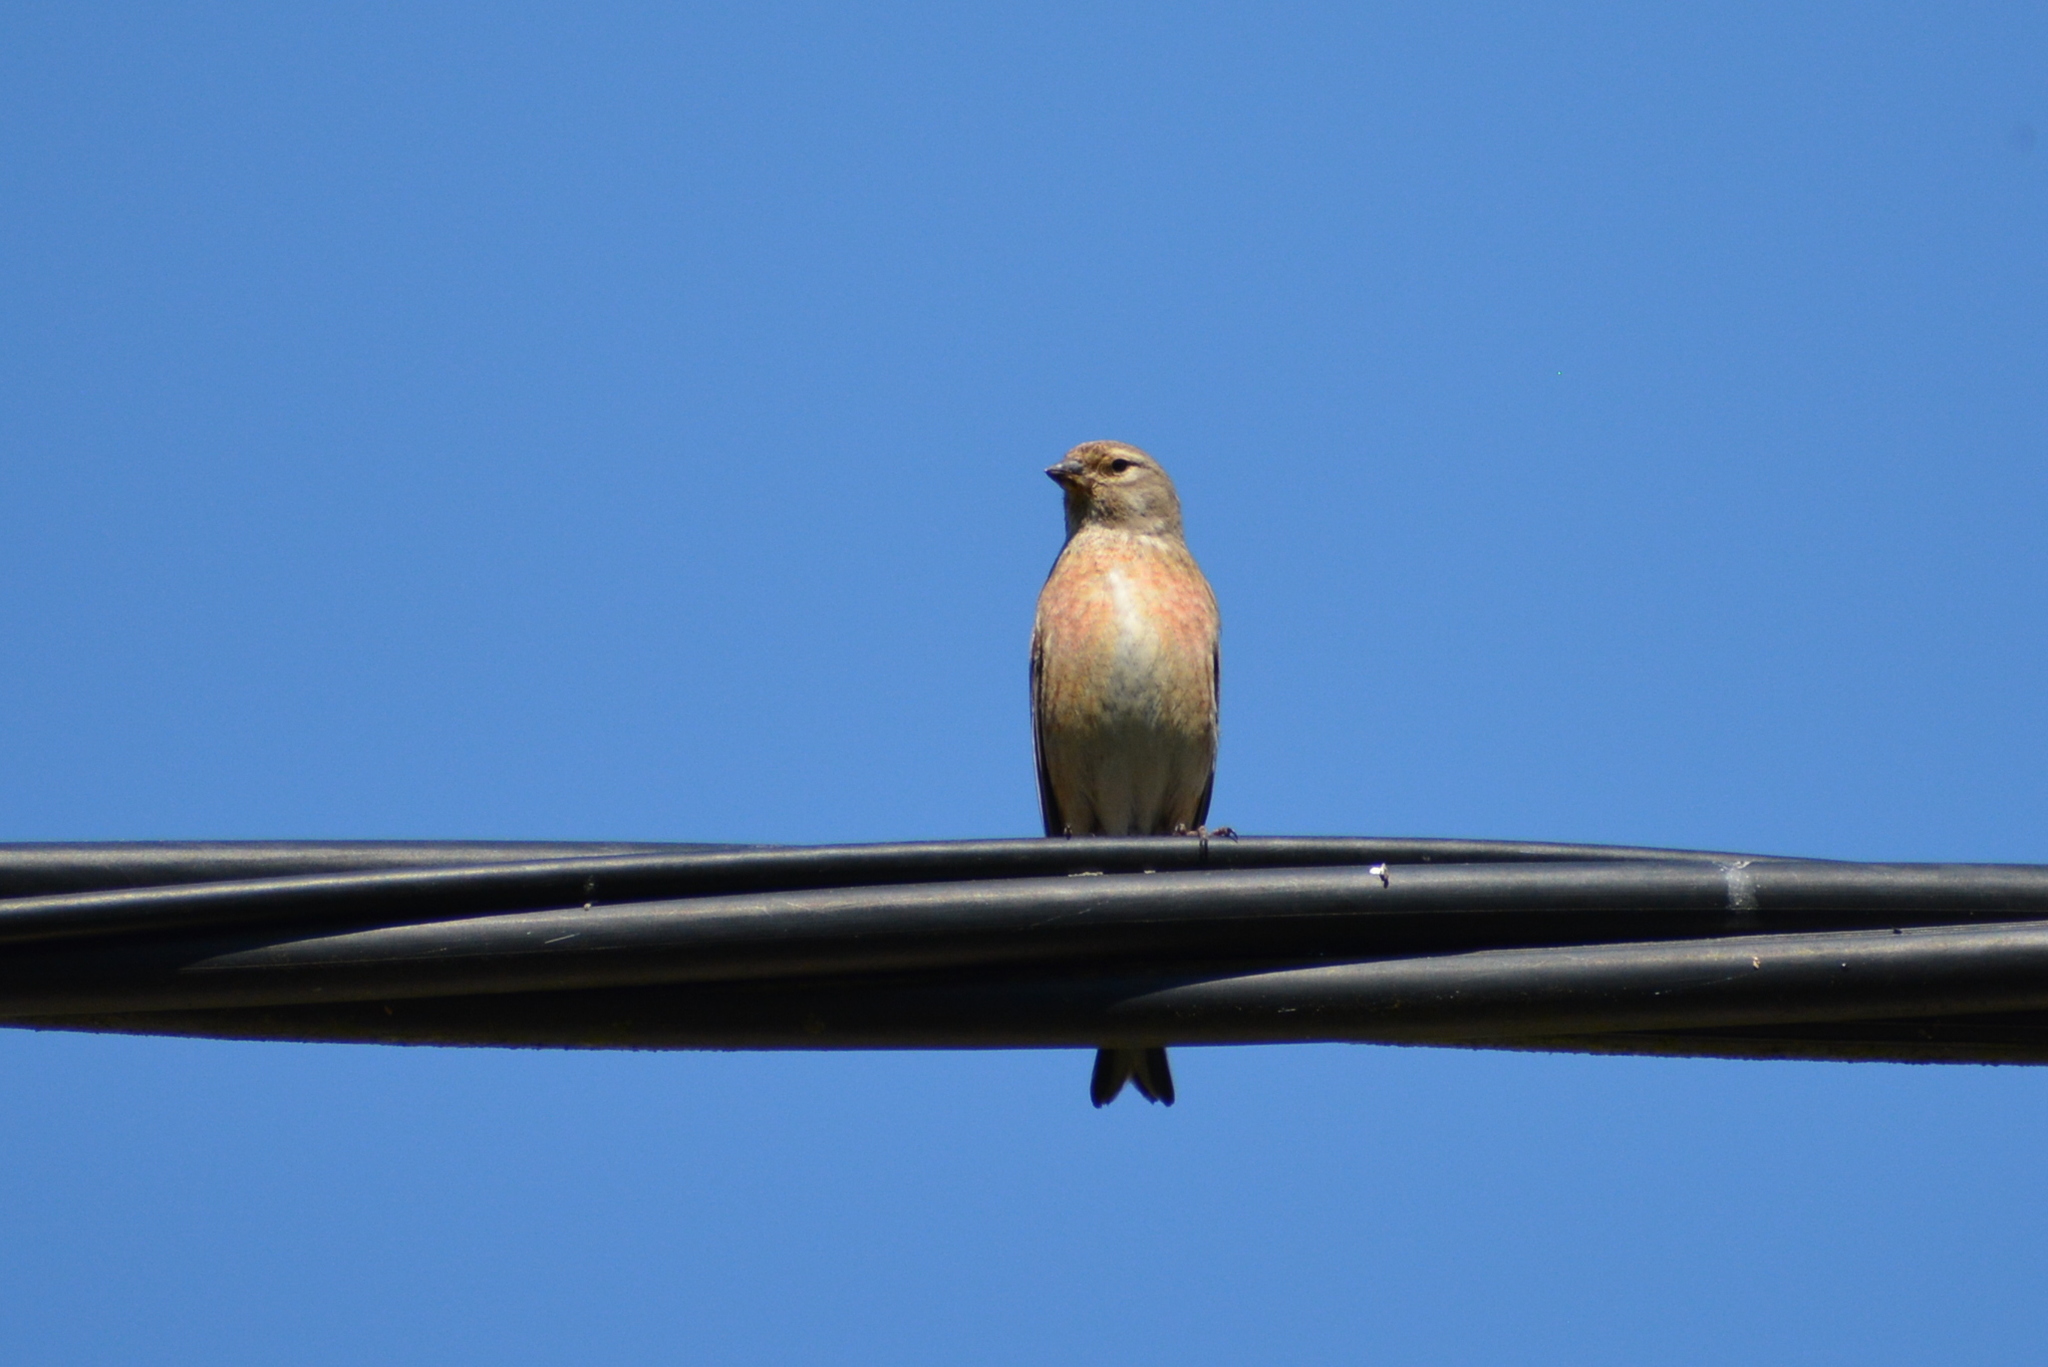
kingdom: Animalia
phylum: Chordata
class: Aves
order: Passeriformes
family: Fringillidae
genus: Linaria
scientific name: Linaria cannabina
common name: Common linnet
